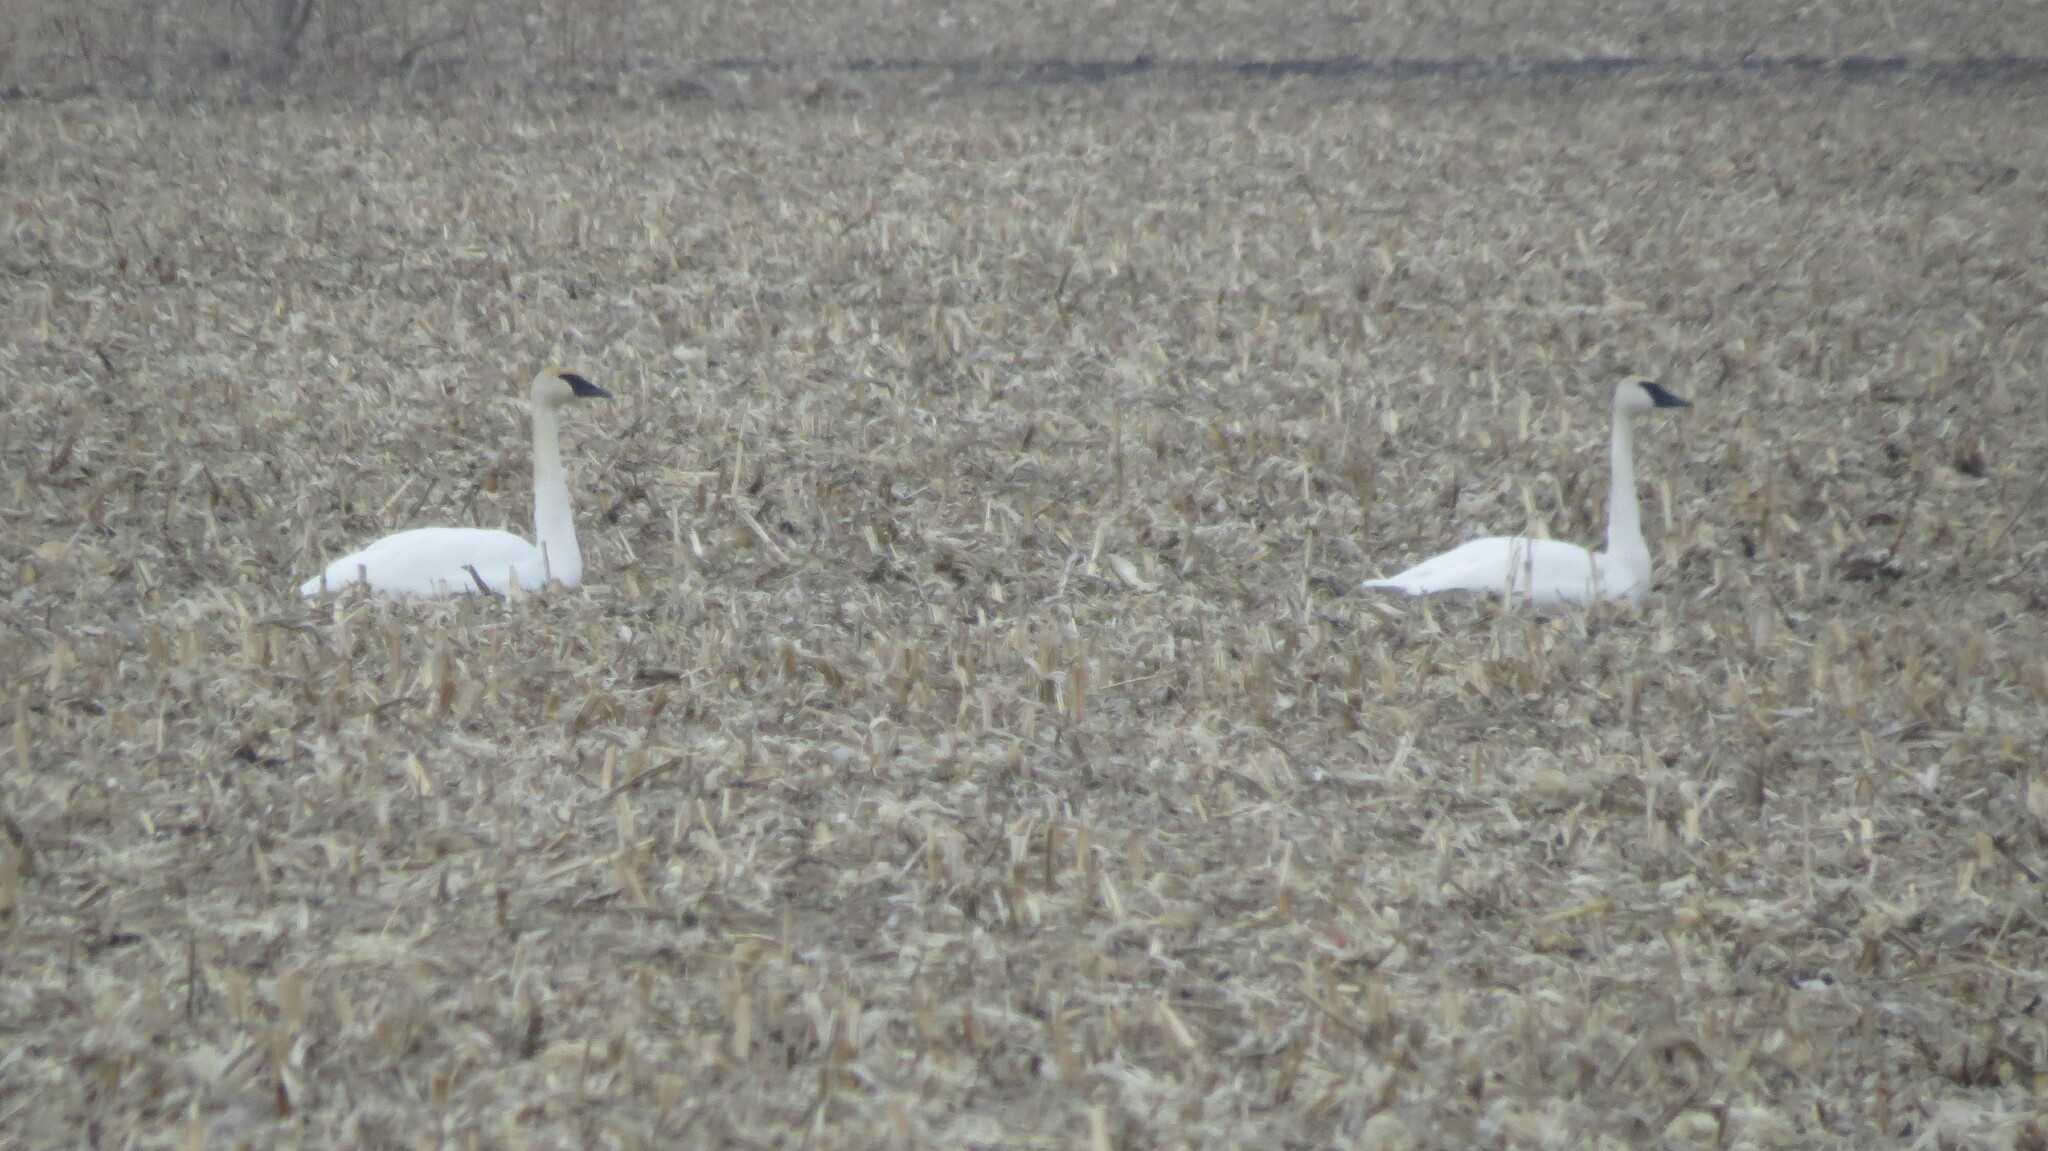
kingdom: Animalia
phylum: Chordata
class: Aves
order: Anseriformes
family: Anatidae
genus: Cygnus
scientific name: Cygnus buccinator
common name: Trumpeter swan
